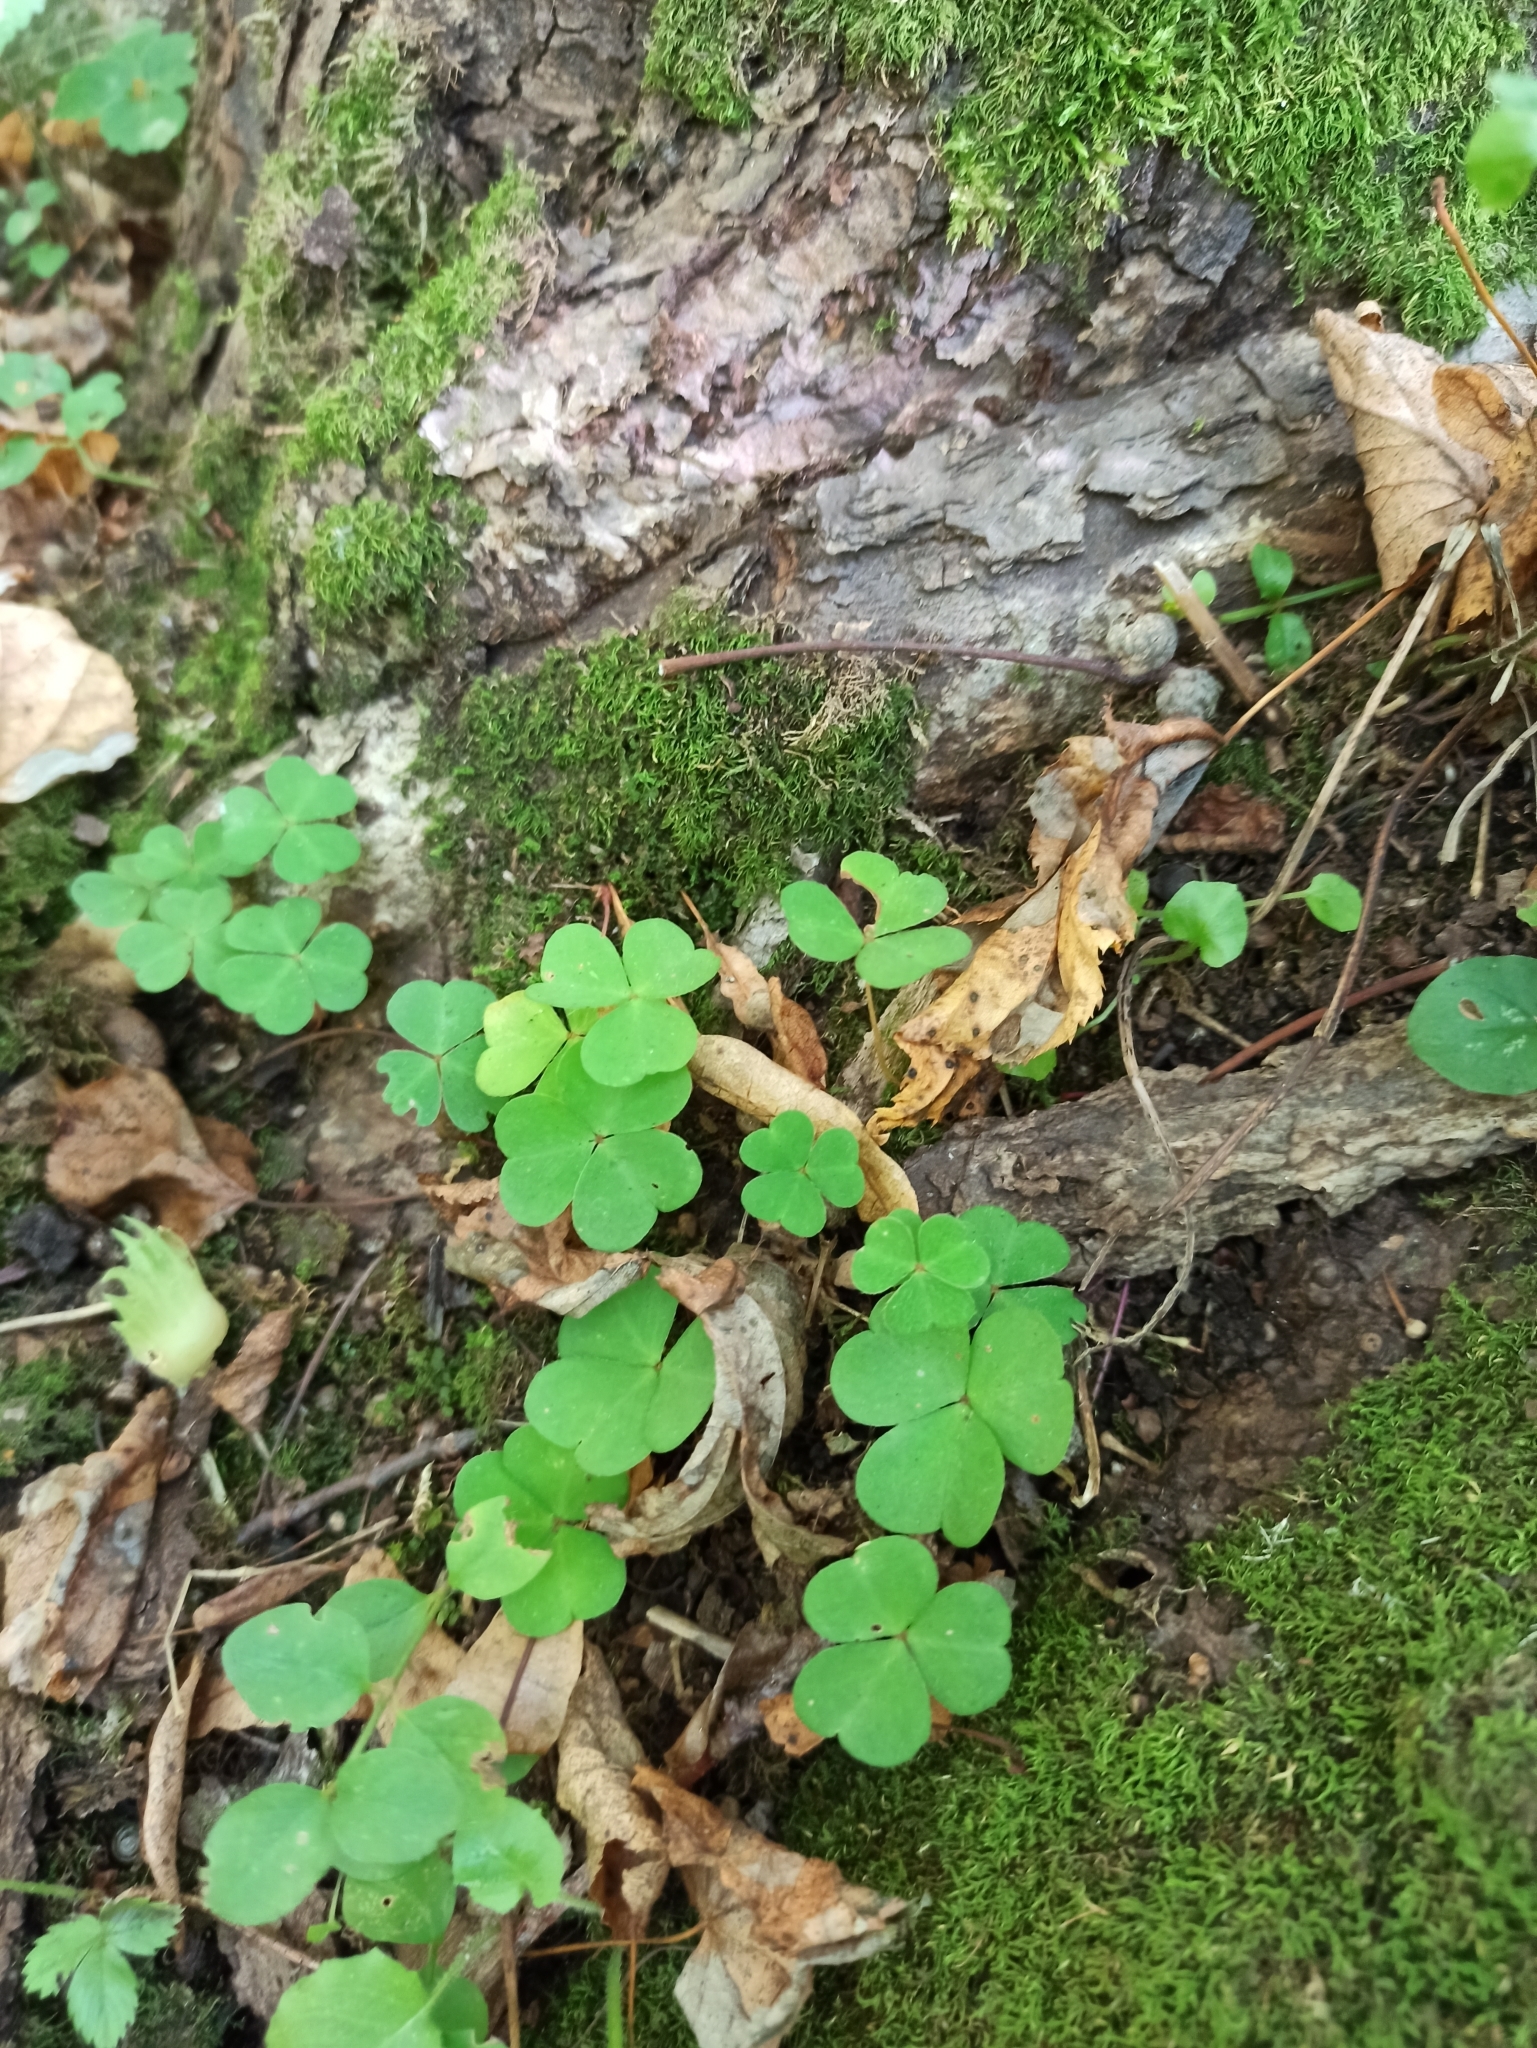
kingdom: Plantae
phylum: Tracheophyta
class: Magnoliopsida
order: Oxalidales
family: Oxalidaceae
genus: Oxalis
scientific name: Oxalis acetosella
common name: Wood-sorrel
